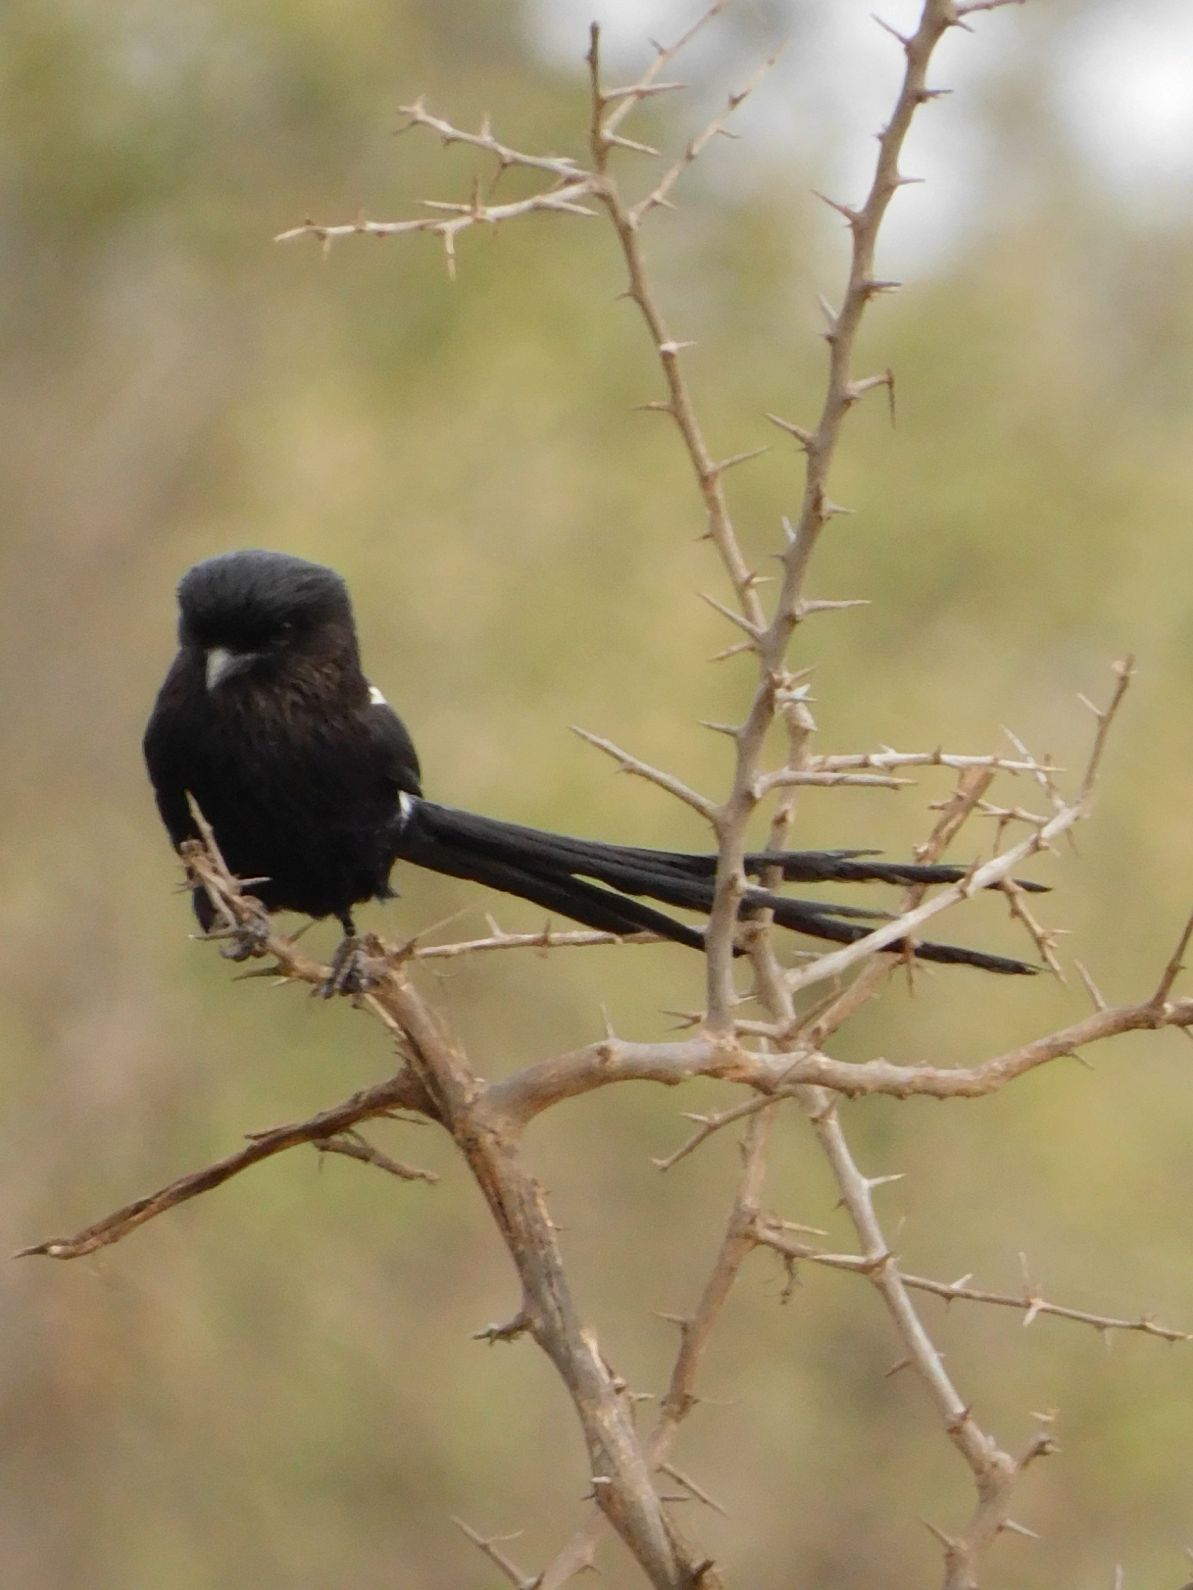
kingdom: Animalia
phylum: Chordata
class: Aves
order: Passeriformes
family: Laniidae
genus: Urolestes
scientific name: Urolestes melanoleucus
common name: Magpie shrike
